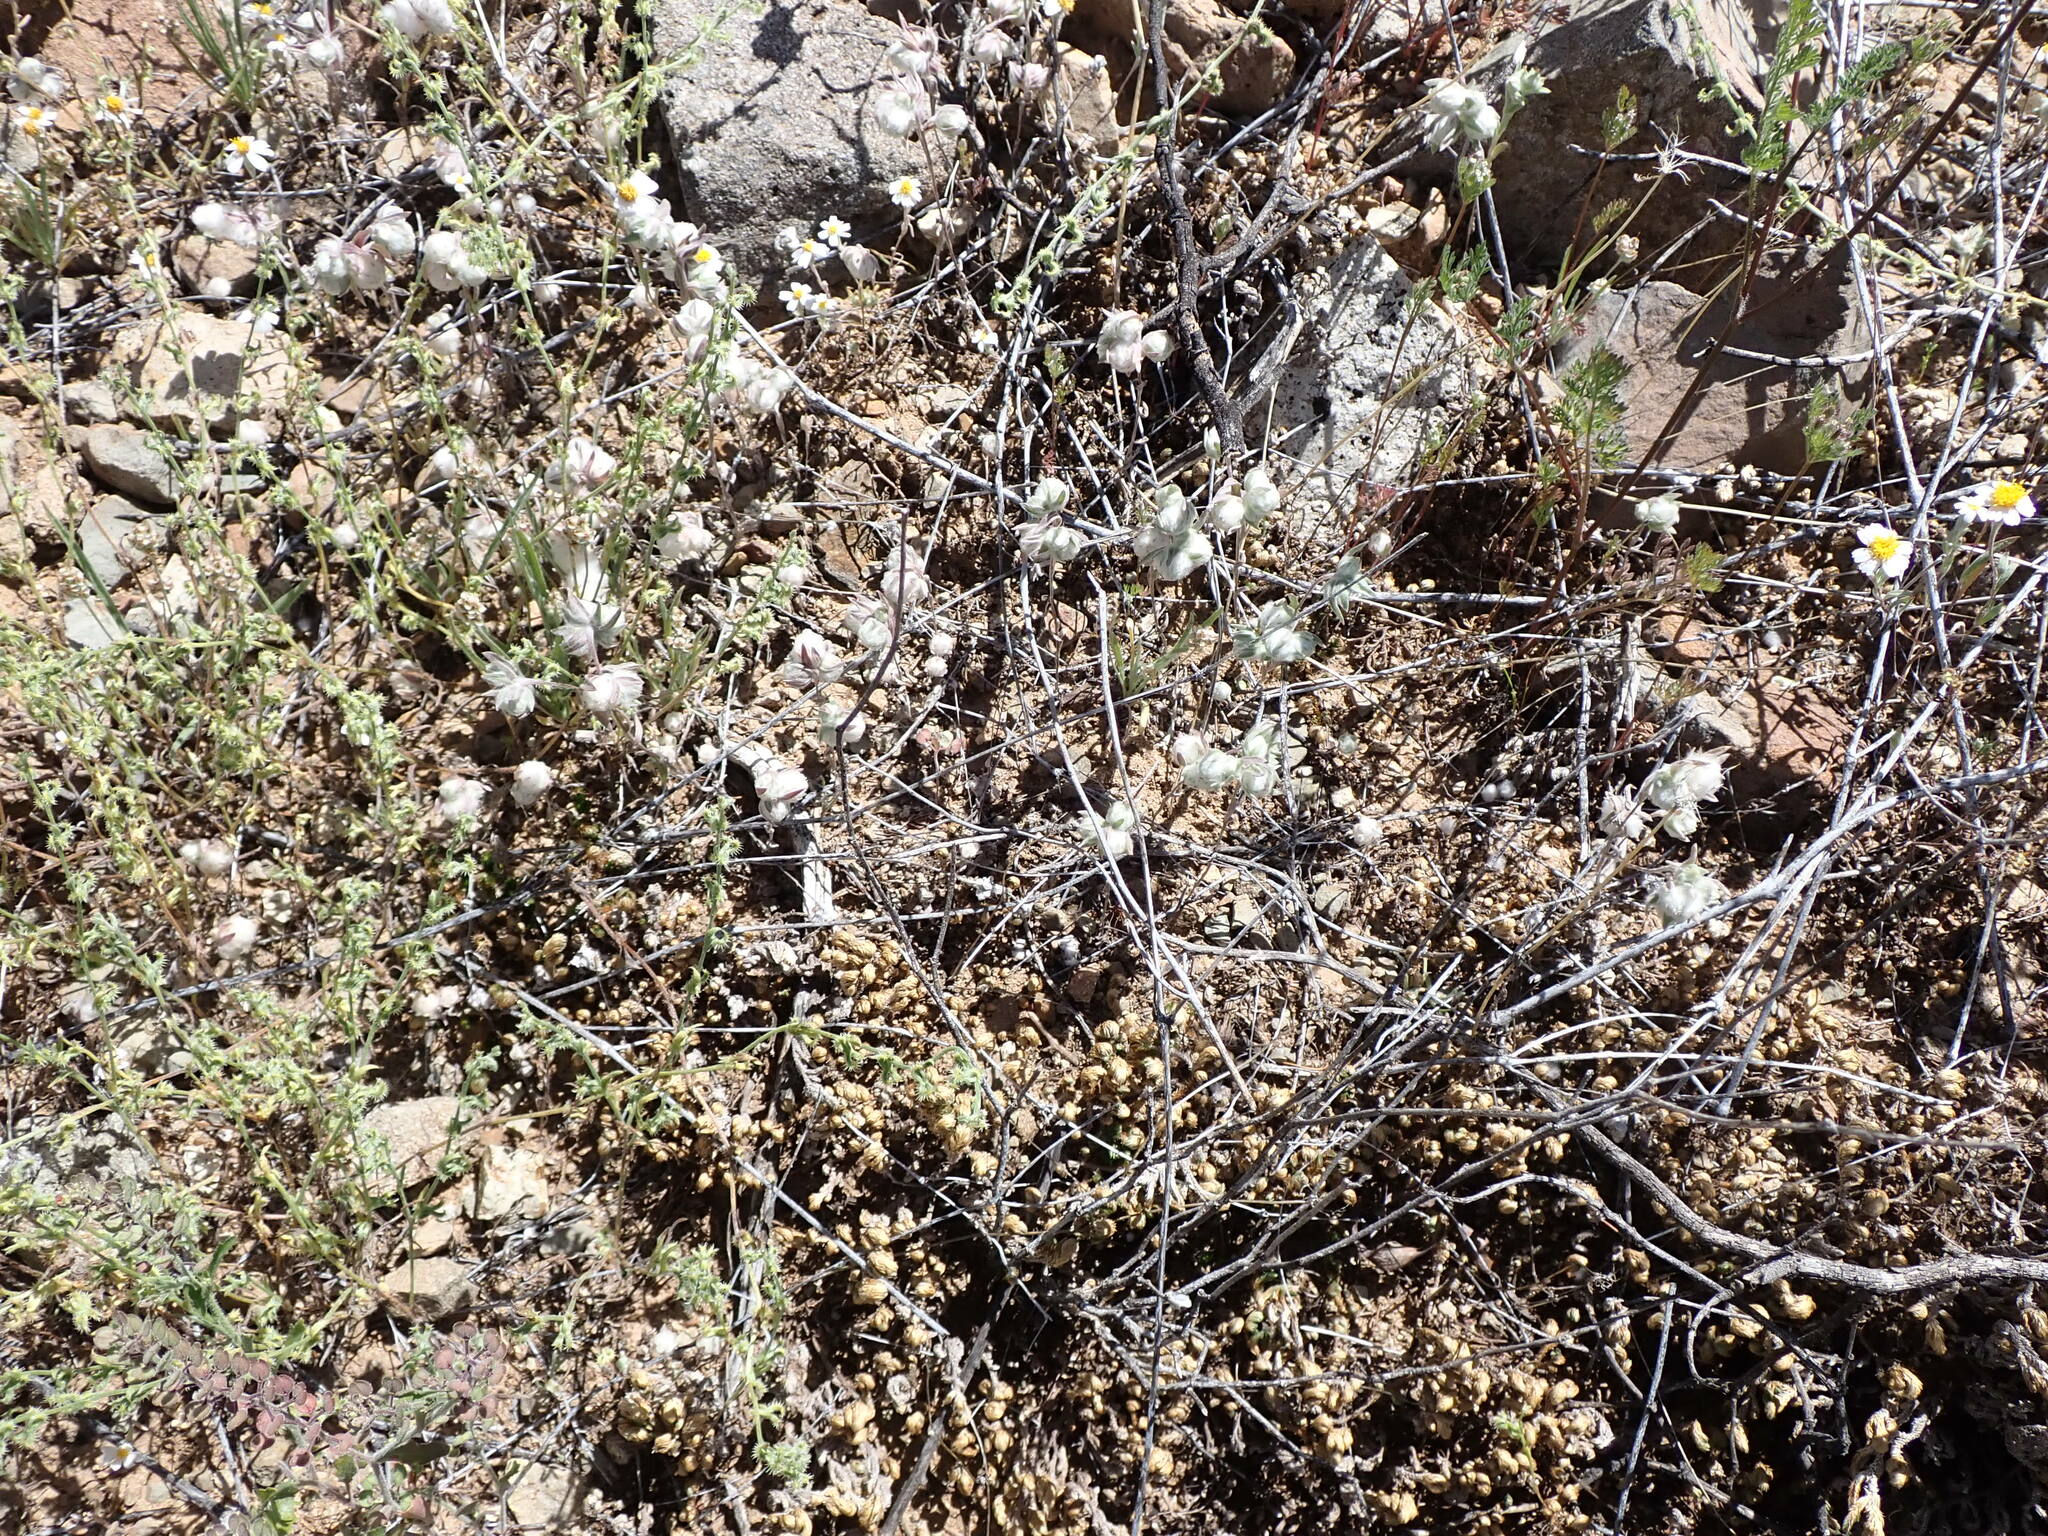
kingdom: Plantae
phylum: Tracheophyta
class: Magnoliopsida
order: Asterales
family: Asteraceae
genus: Stylocline
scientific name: Stylocline micropoides
